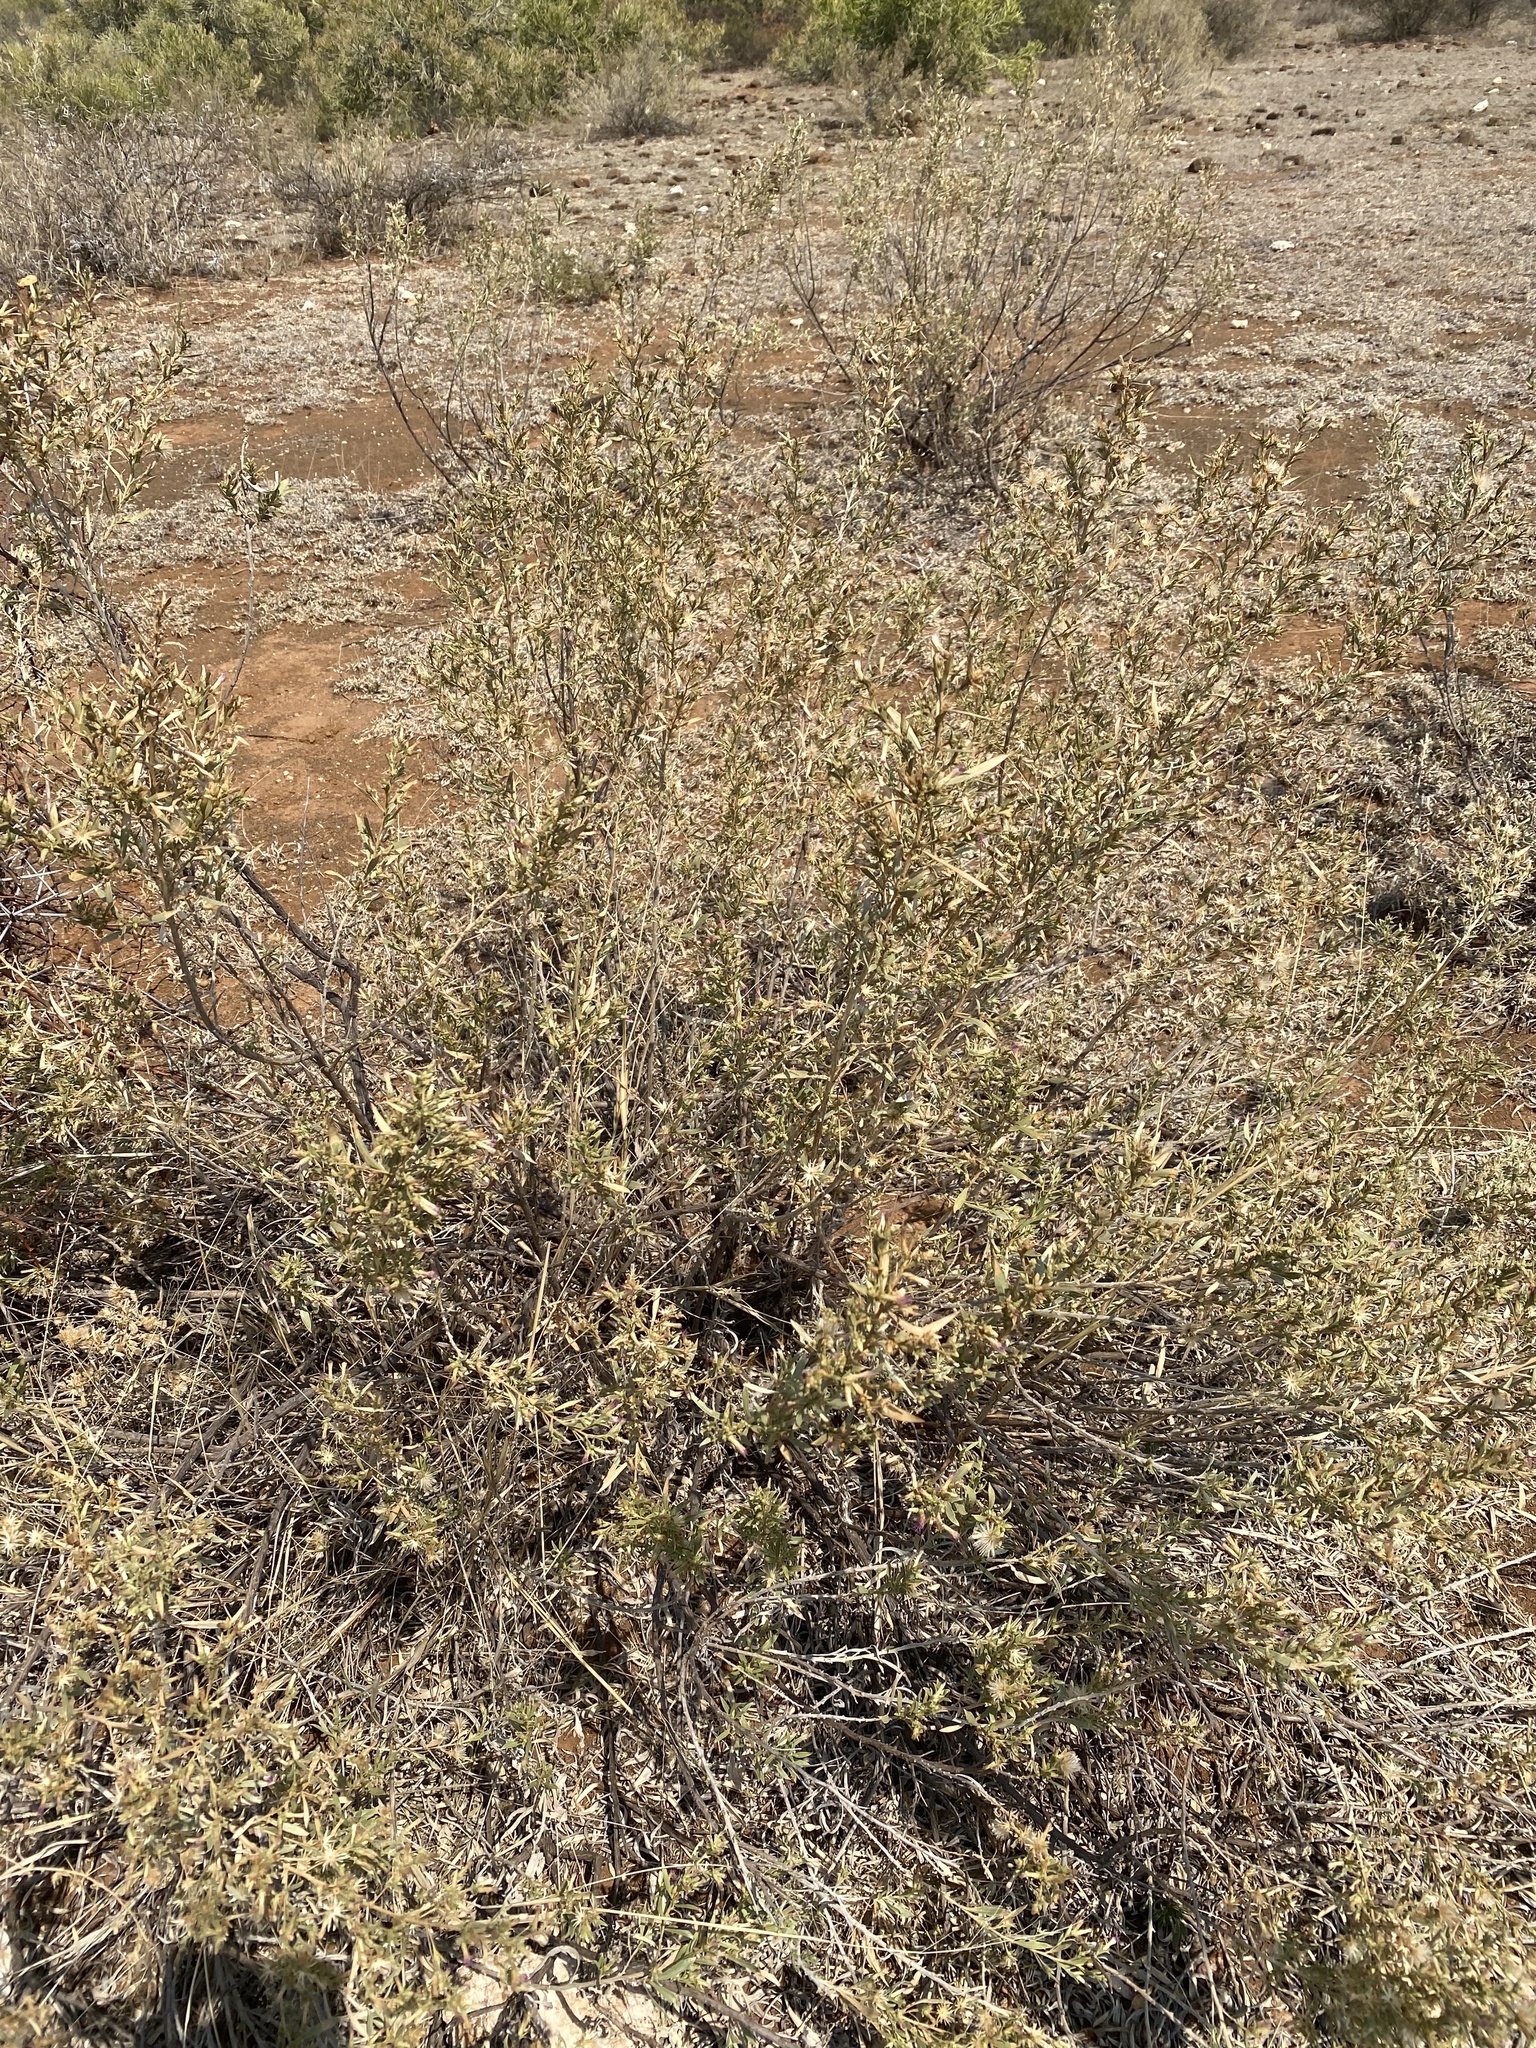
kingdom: Plantae
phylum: Tracheophyta
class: Magnoliopsida
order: Asterales
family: Asteraceae
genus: Pechuel-loeschea
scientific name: Pechuel-loeschea leubnitziae
